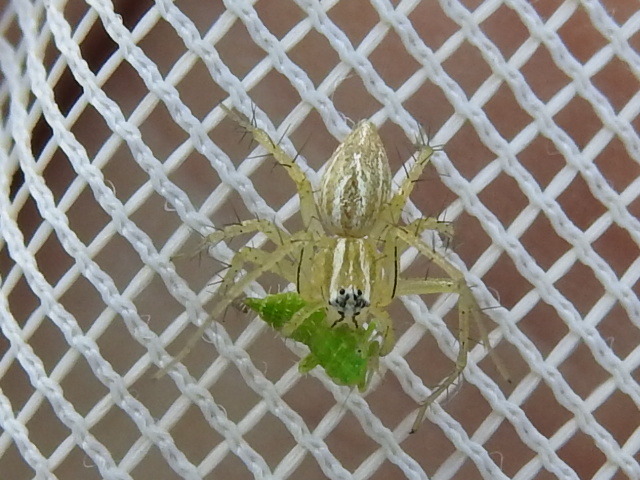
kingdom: Animalia
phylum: Arthropoda
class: Arachnida
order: Araneae
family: Oxyopidae
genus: Oxyopes
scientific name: Oxyopes salticus
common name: Lynx spiders
